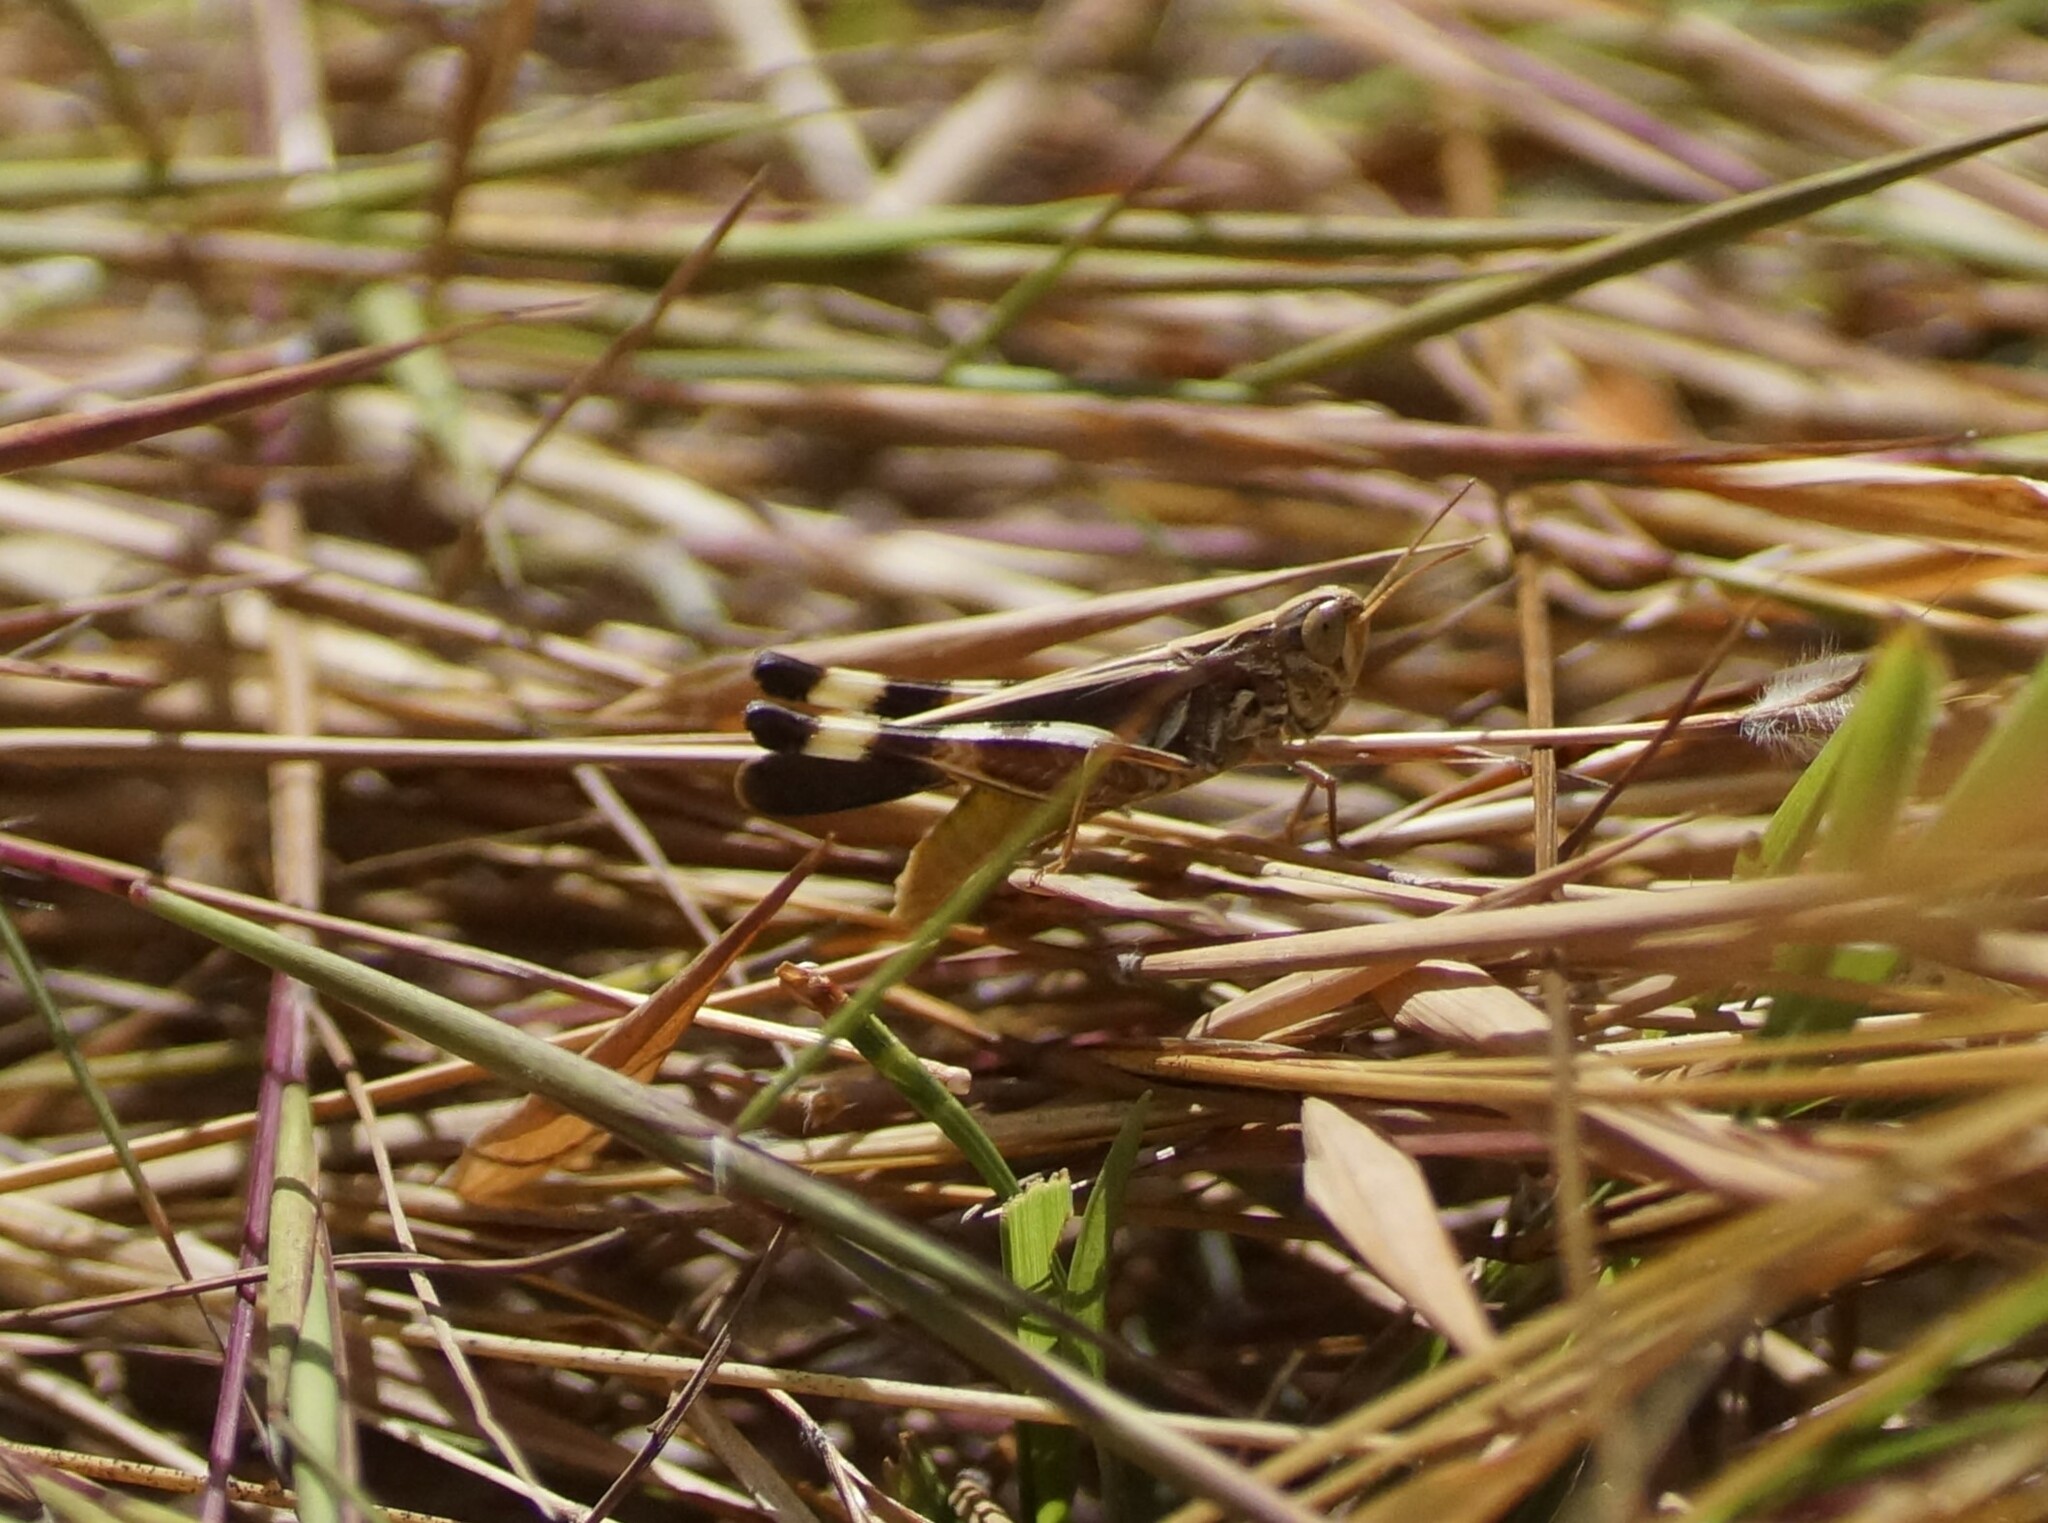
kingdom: Animalia
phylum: Arthropoda
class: Insecta
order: Orthoptera
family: Acrididae
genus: Caledia
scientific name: Caledia captiva
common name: Caledia
